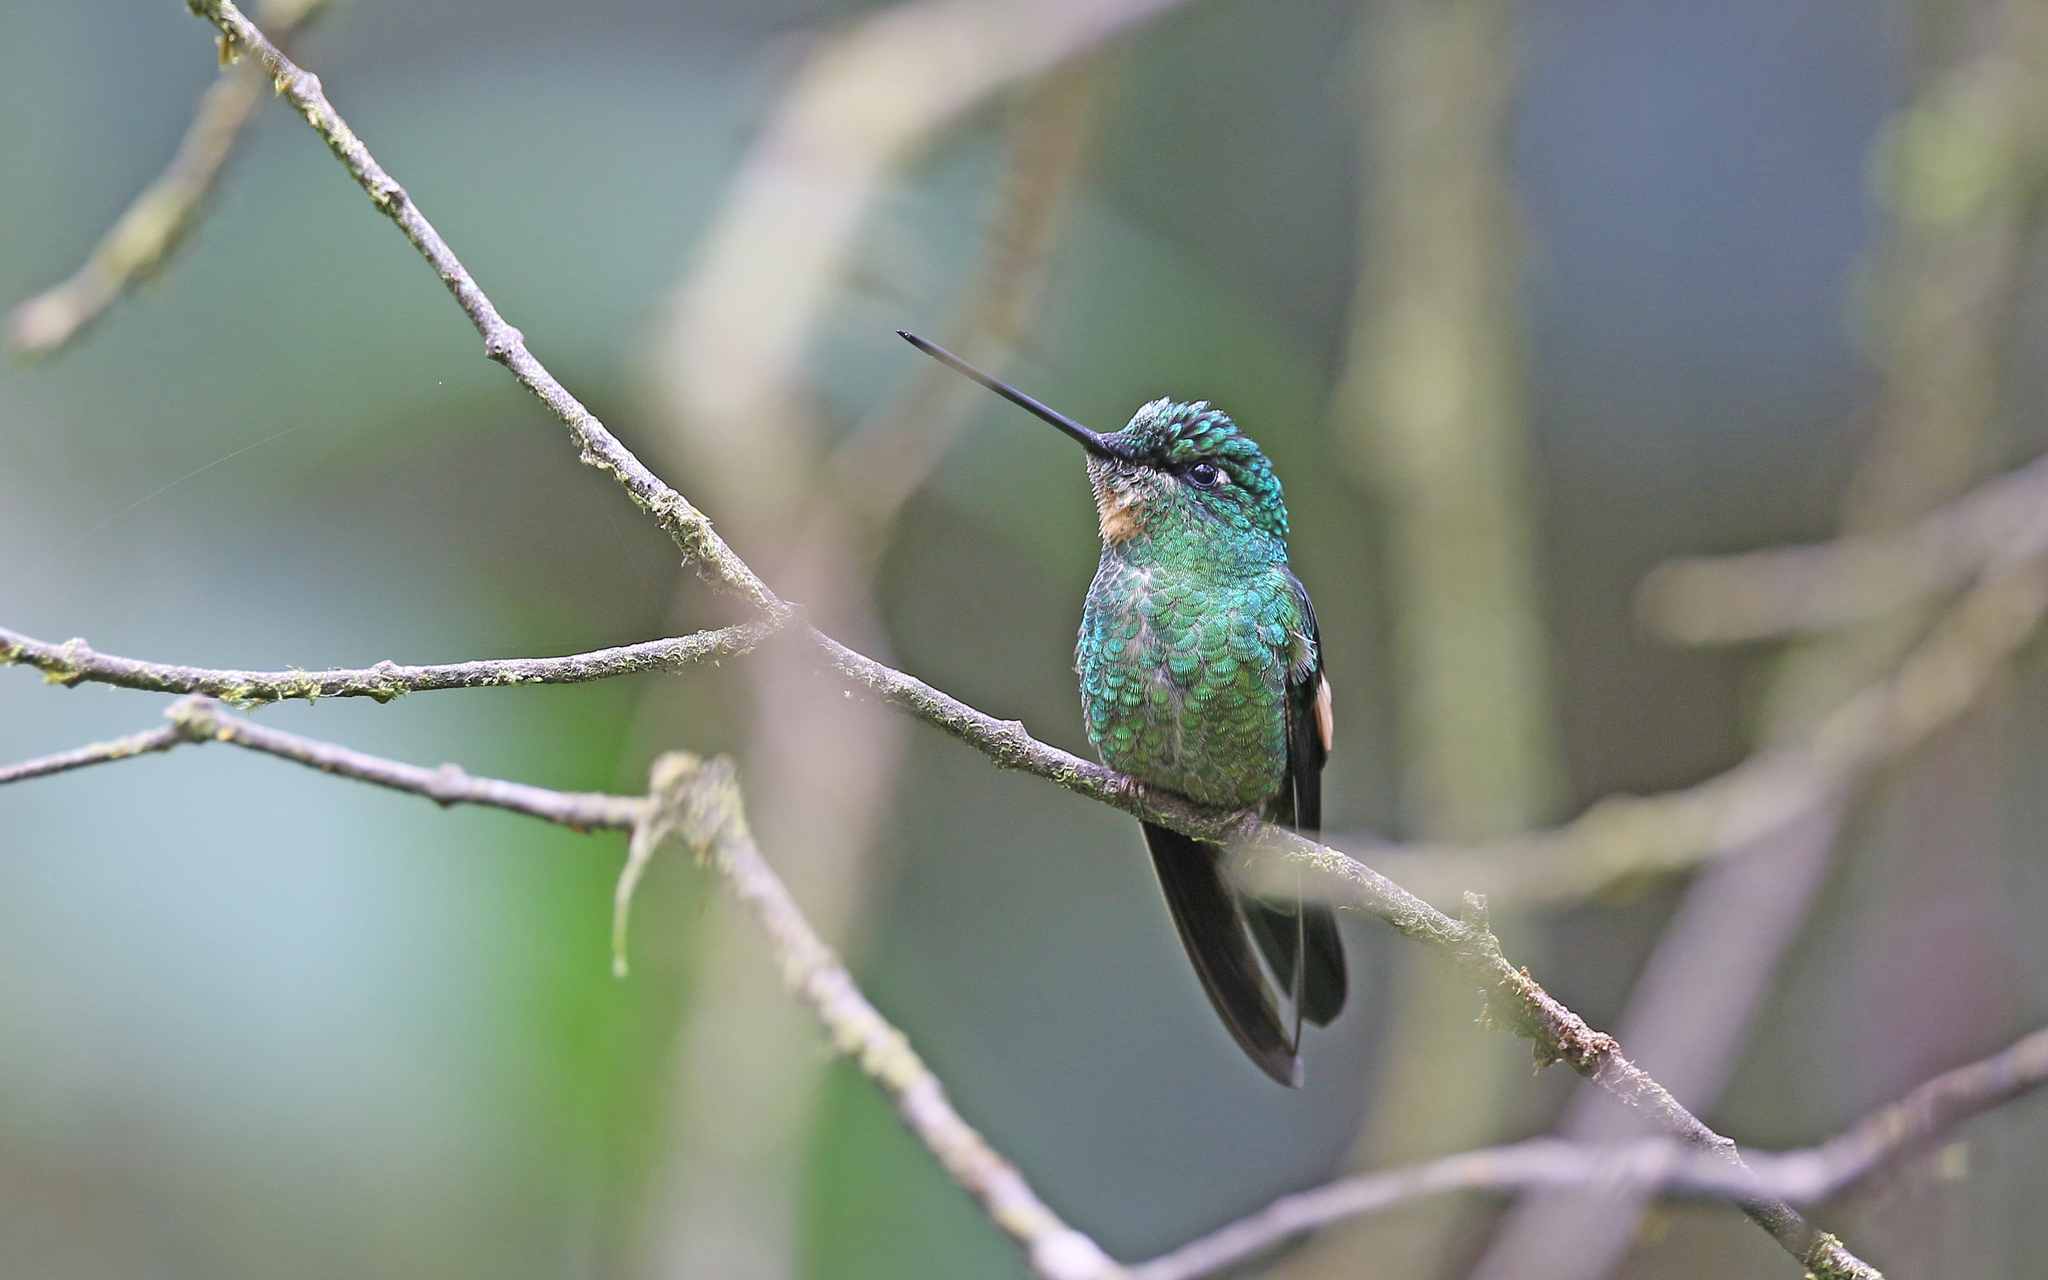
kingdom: Animalia
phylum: Chordata
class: Aves
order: Apodiformes
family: Trochilidae
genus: Coeligena
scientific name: Coeligena lutetiae
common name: Buff-winged starfrontlet
